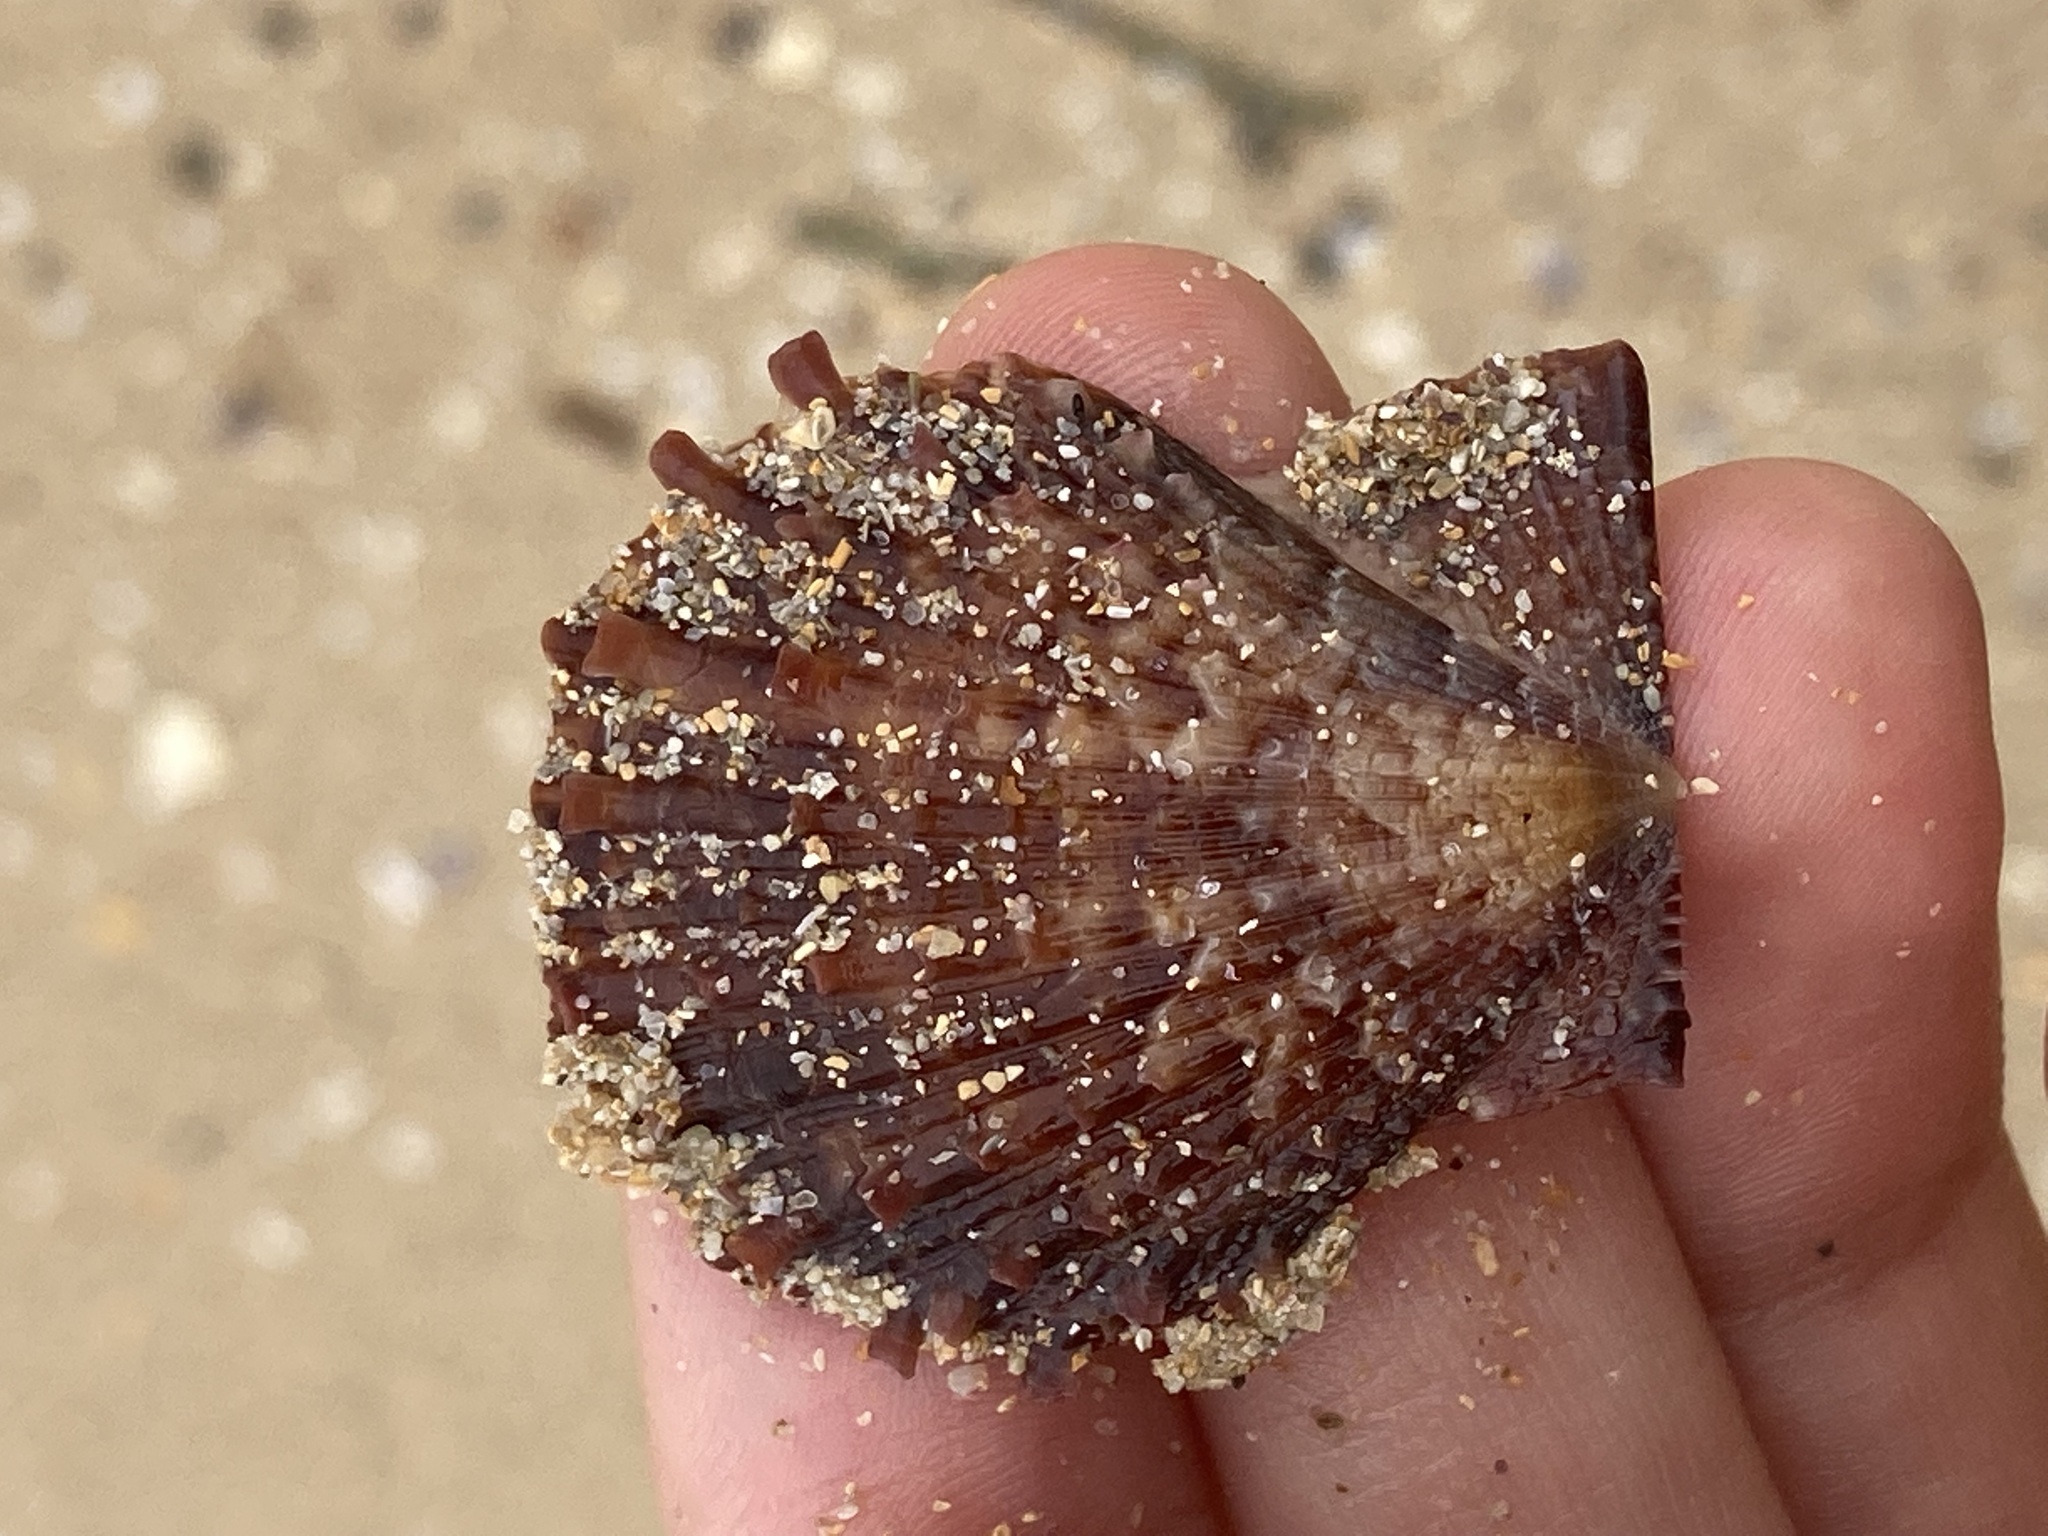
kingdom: Animalia
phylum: Mollusca
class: Bivalvia
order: Pectinida
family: Pectinidae
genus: Scaeochlamys
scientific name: Scaeochlamys livida
